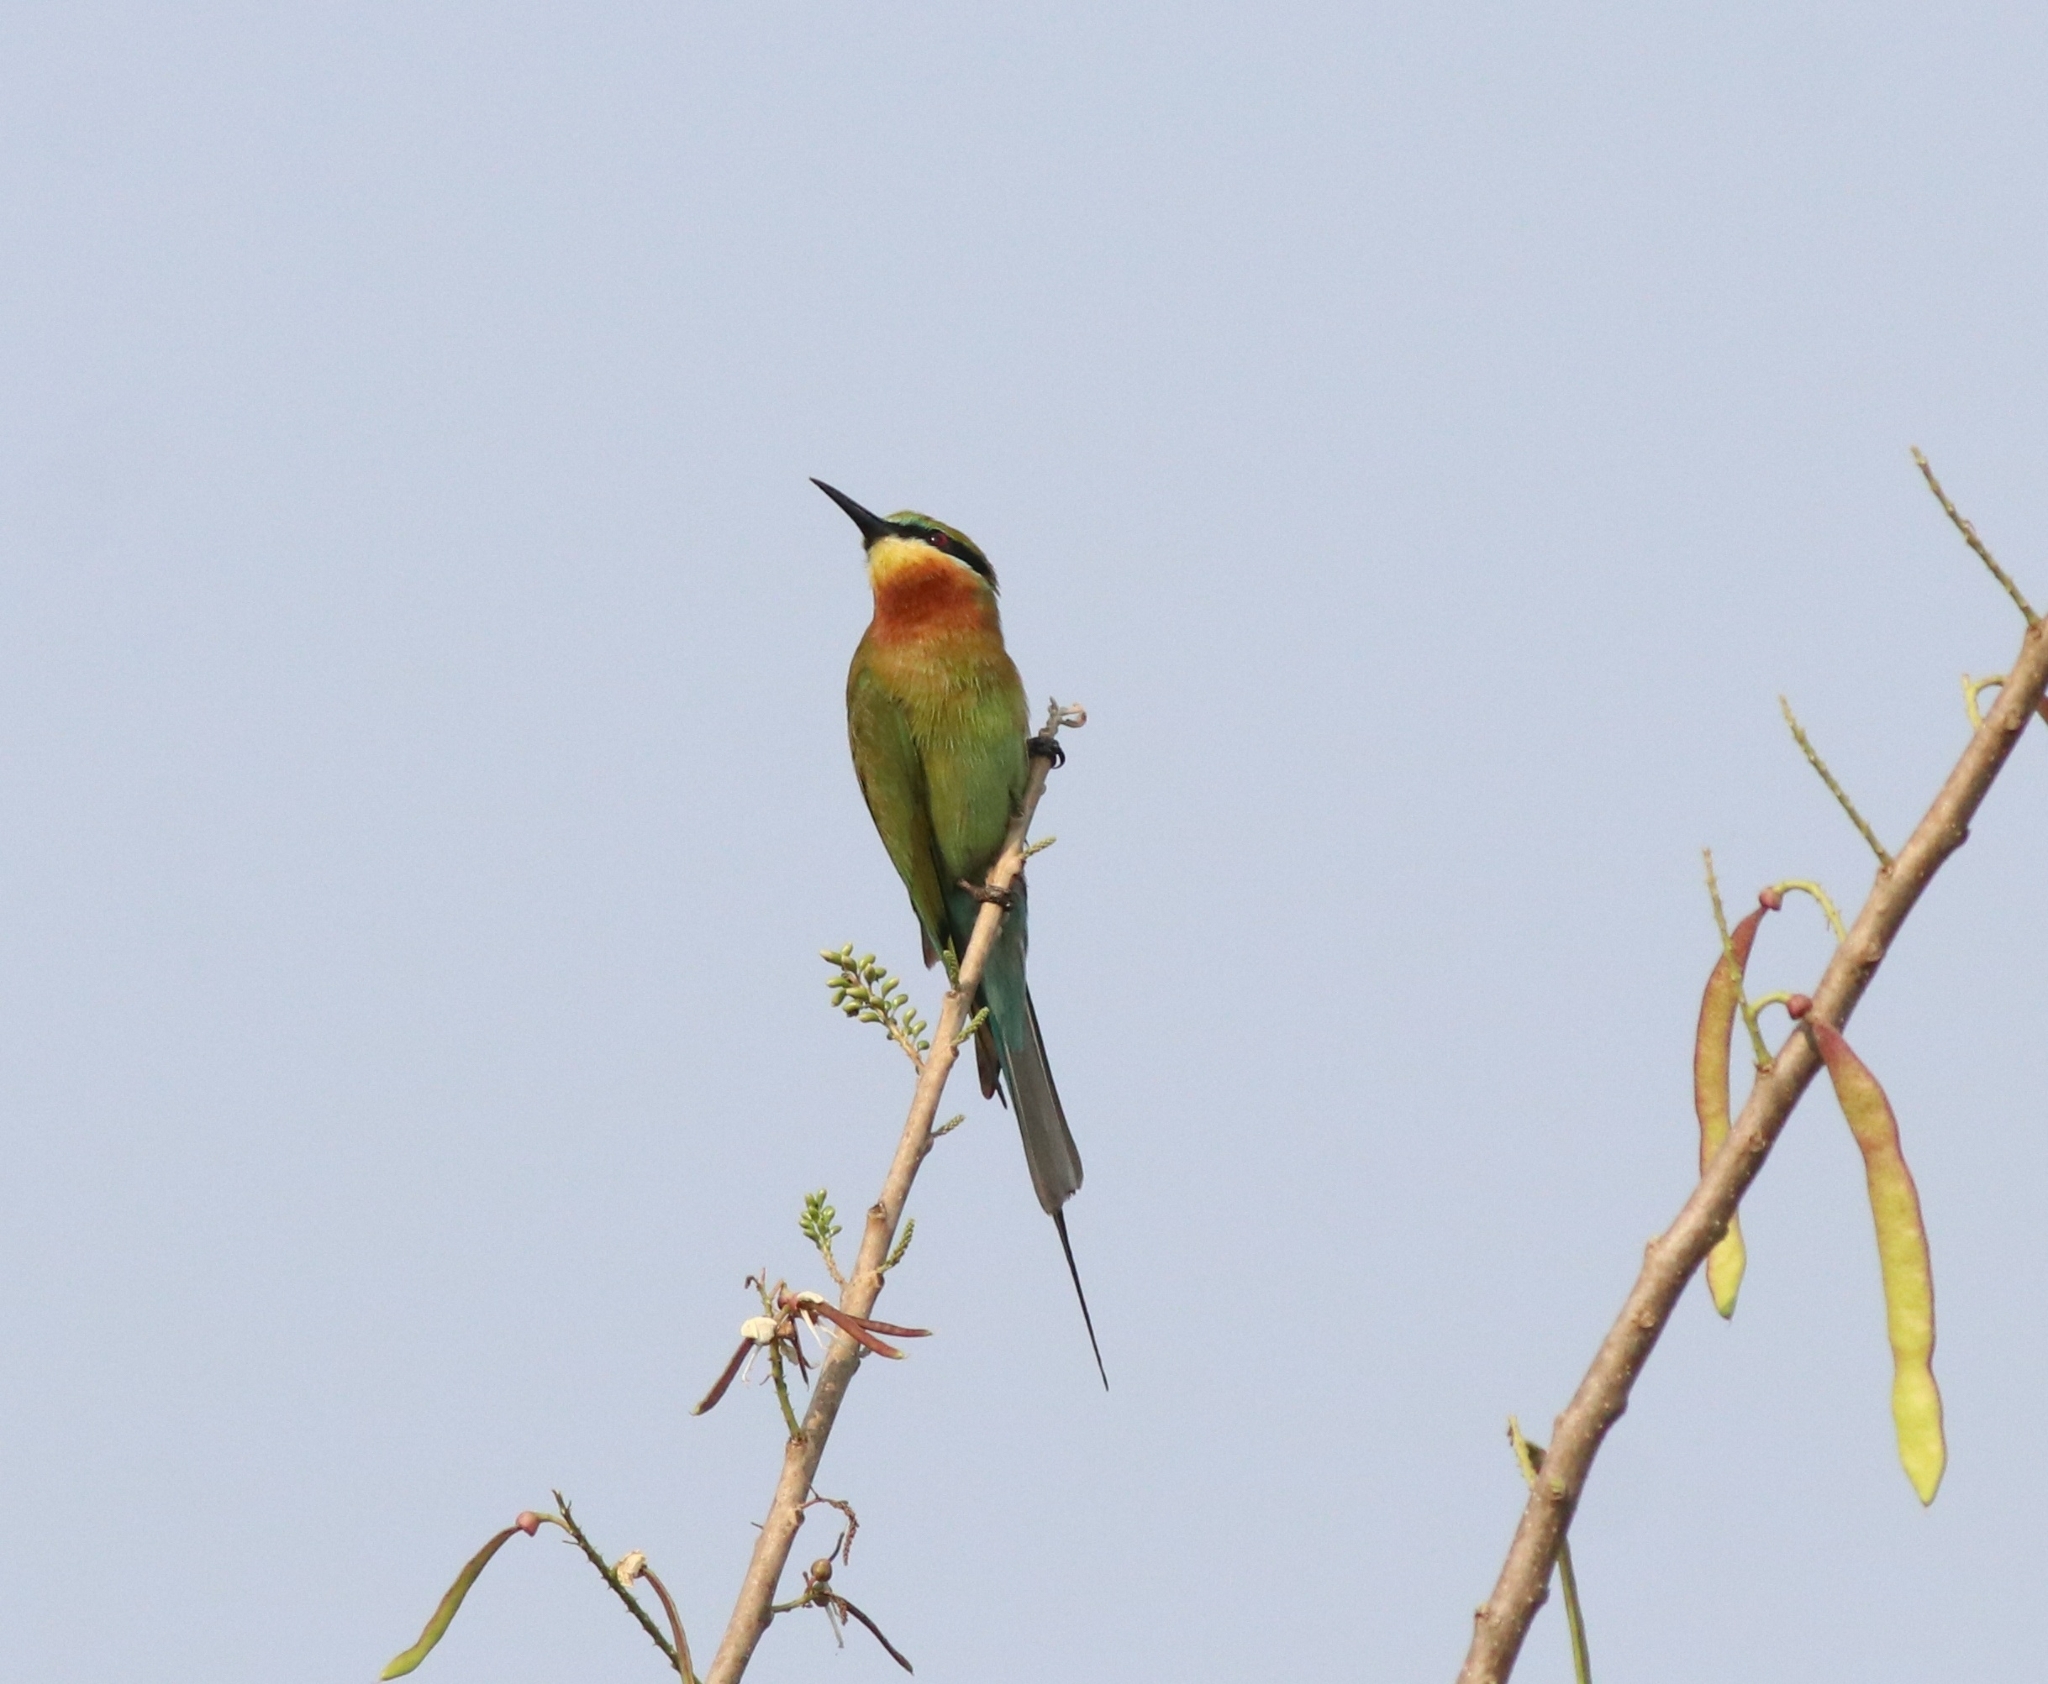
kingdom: Animalia
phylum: Chordata
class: Aves
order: Coraciiformes
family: Meropidae
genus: Merops
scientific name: Merops philippinus
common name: Blue-tailed bee-eater
